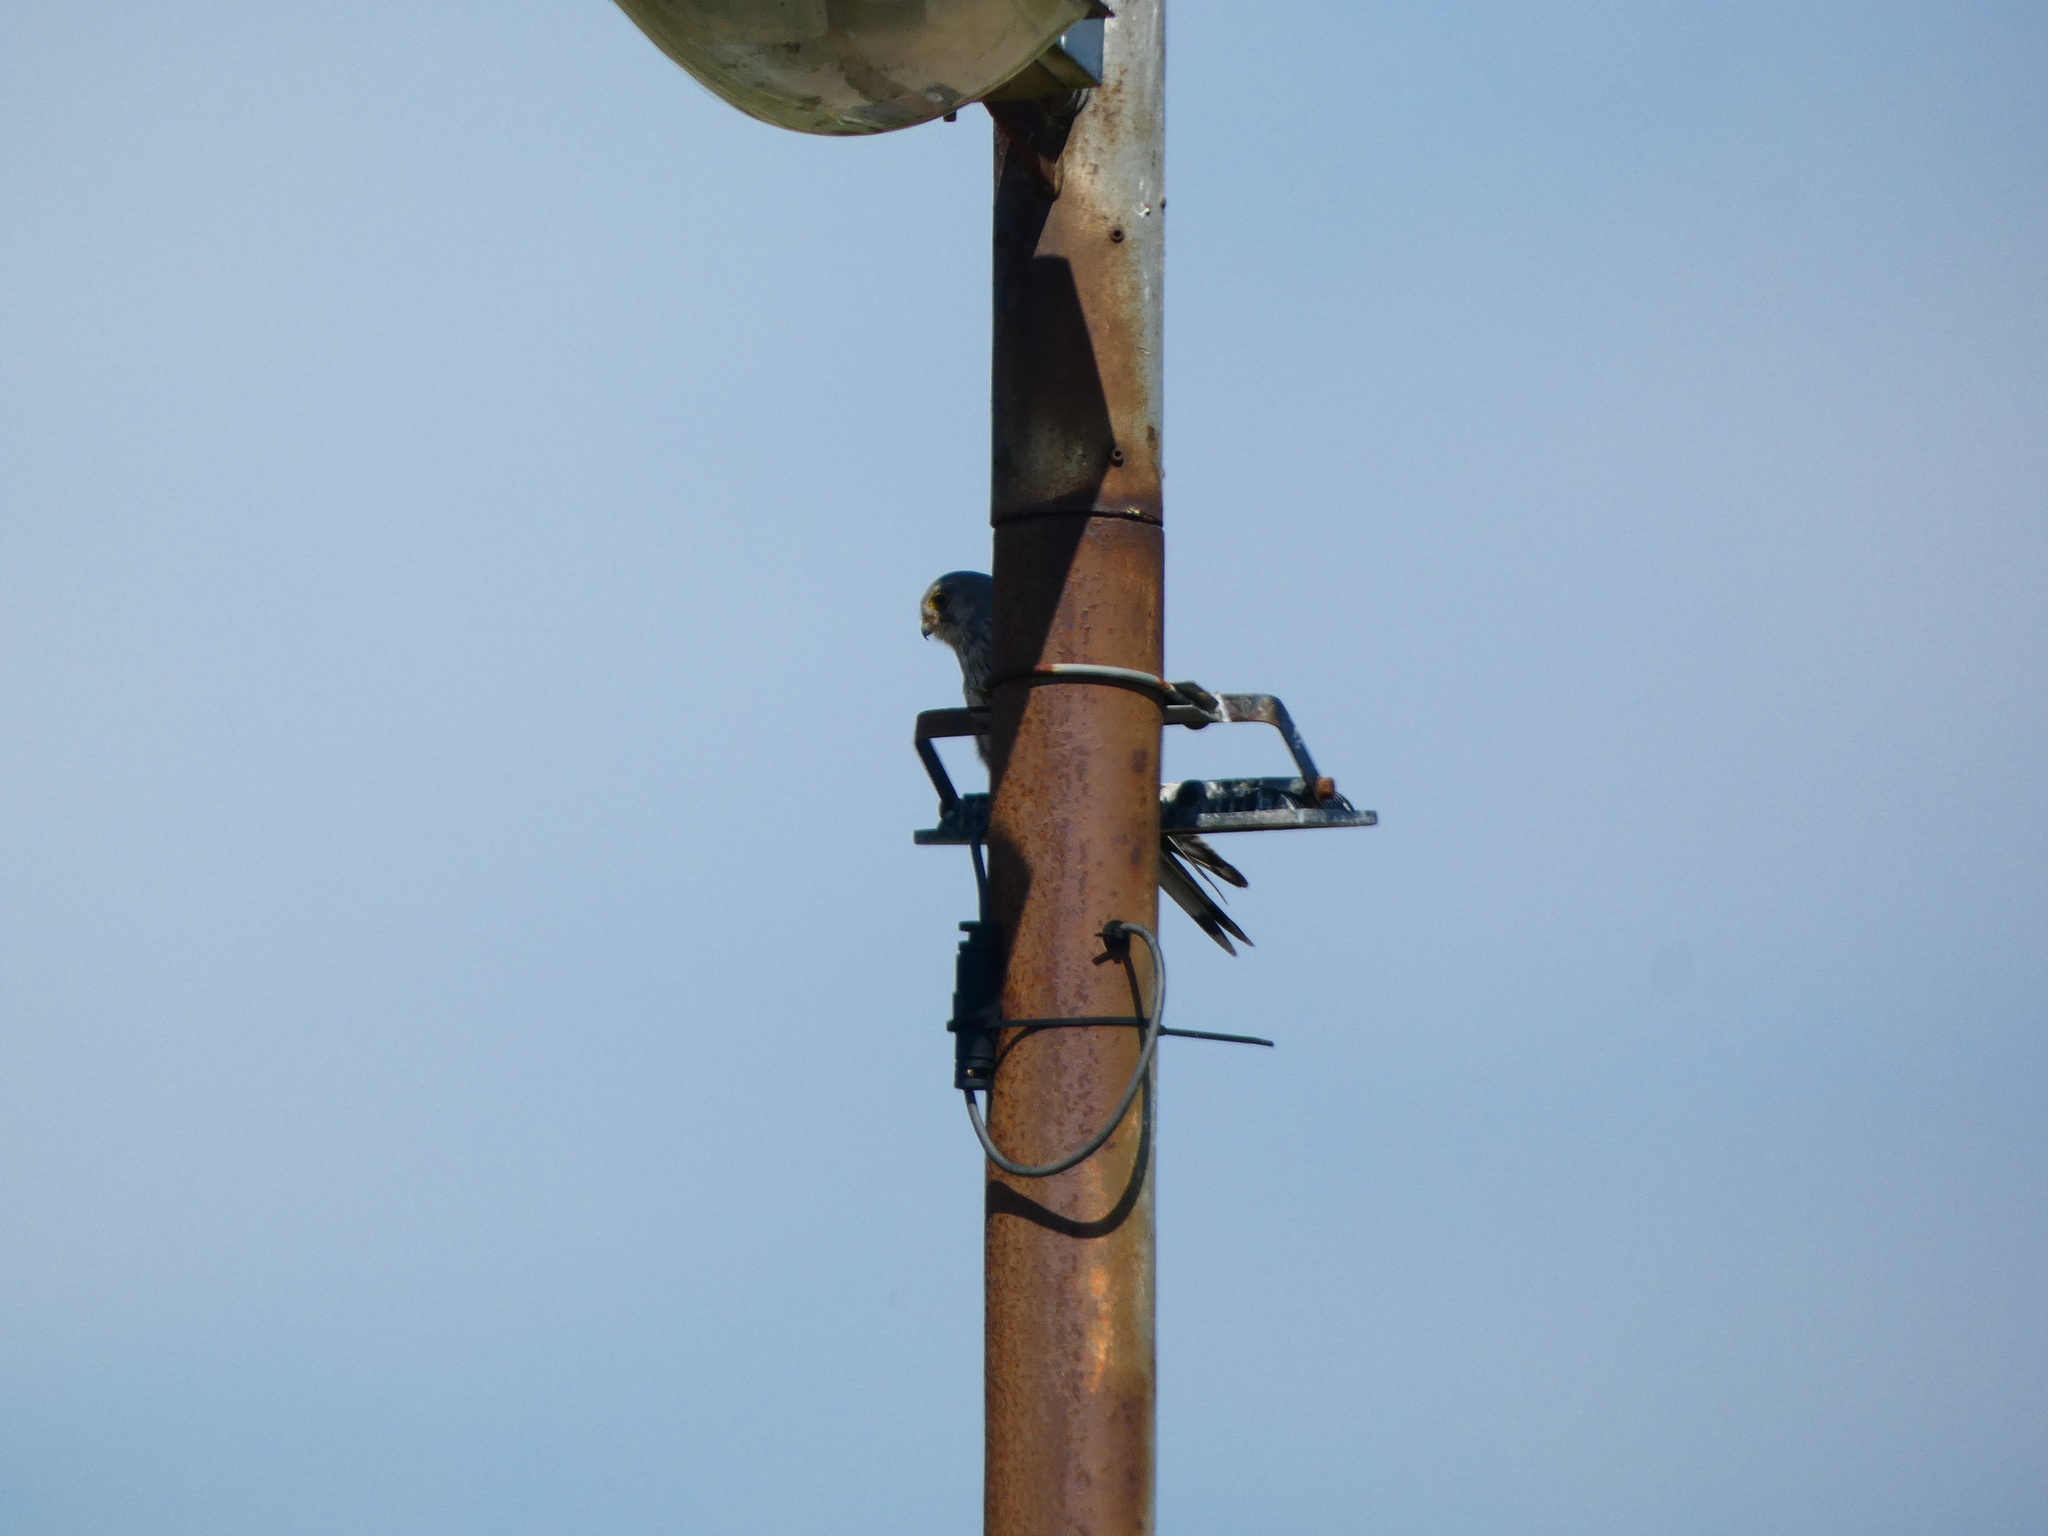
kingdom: Animalia
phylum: Chordata
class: Aves
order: Falconiformes
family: Falconidae
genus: Falco
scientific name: Falco tinnunculus
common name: Common kestrel
